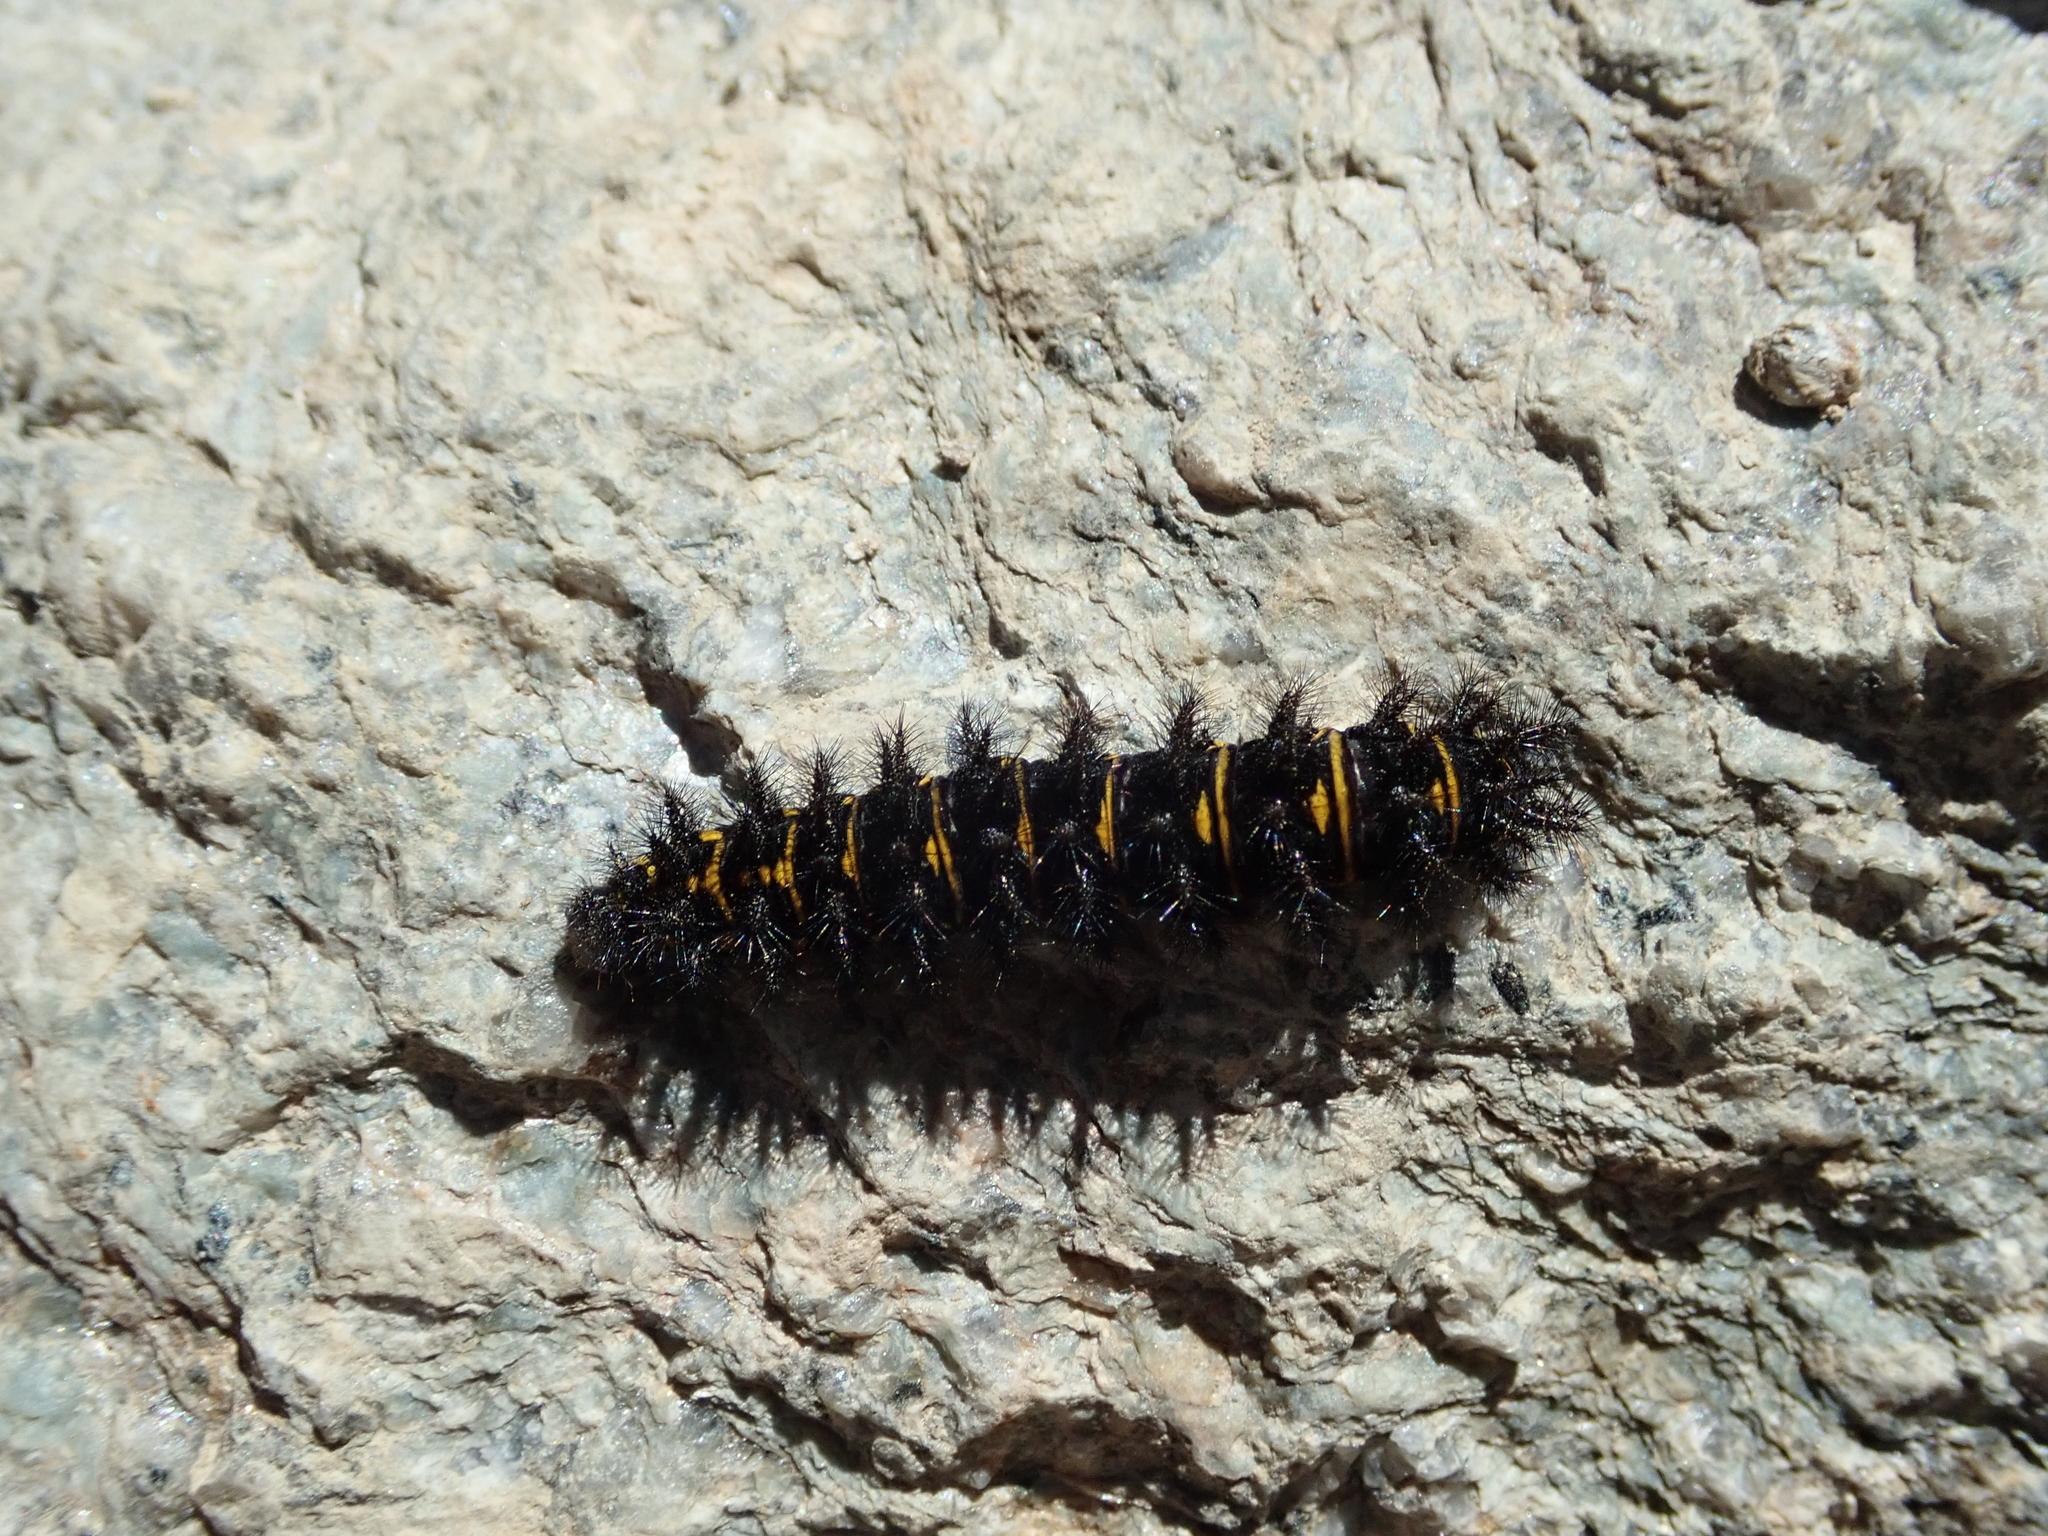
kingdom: Animalia
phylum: Arthropoda
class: Insecta
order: Lepidoptera
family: Nymphalidae
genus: Hypodryas
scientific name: Hypodryas cynthia
